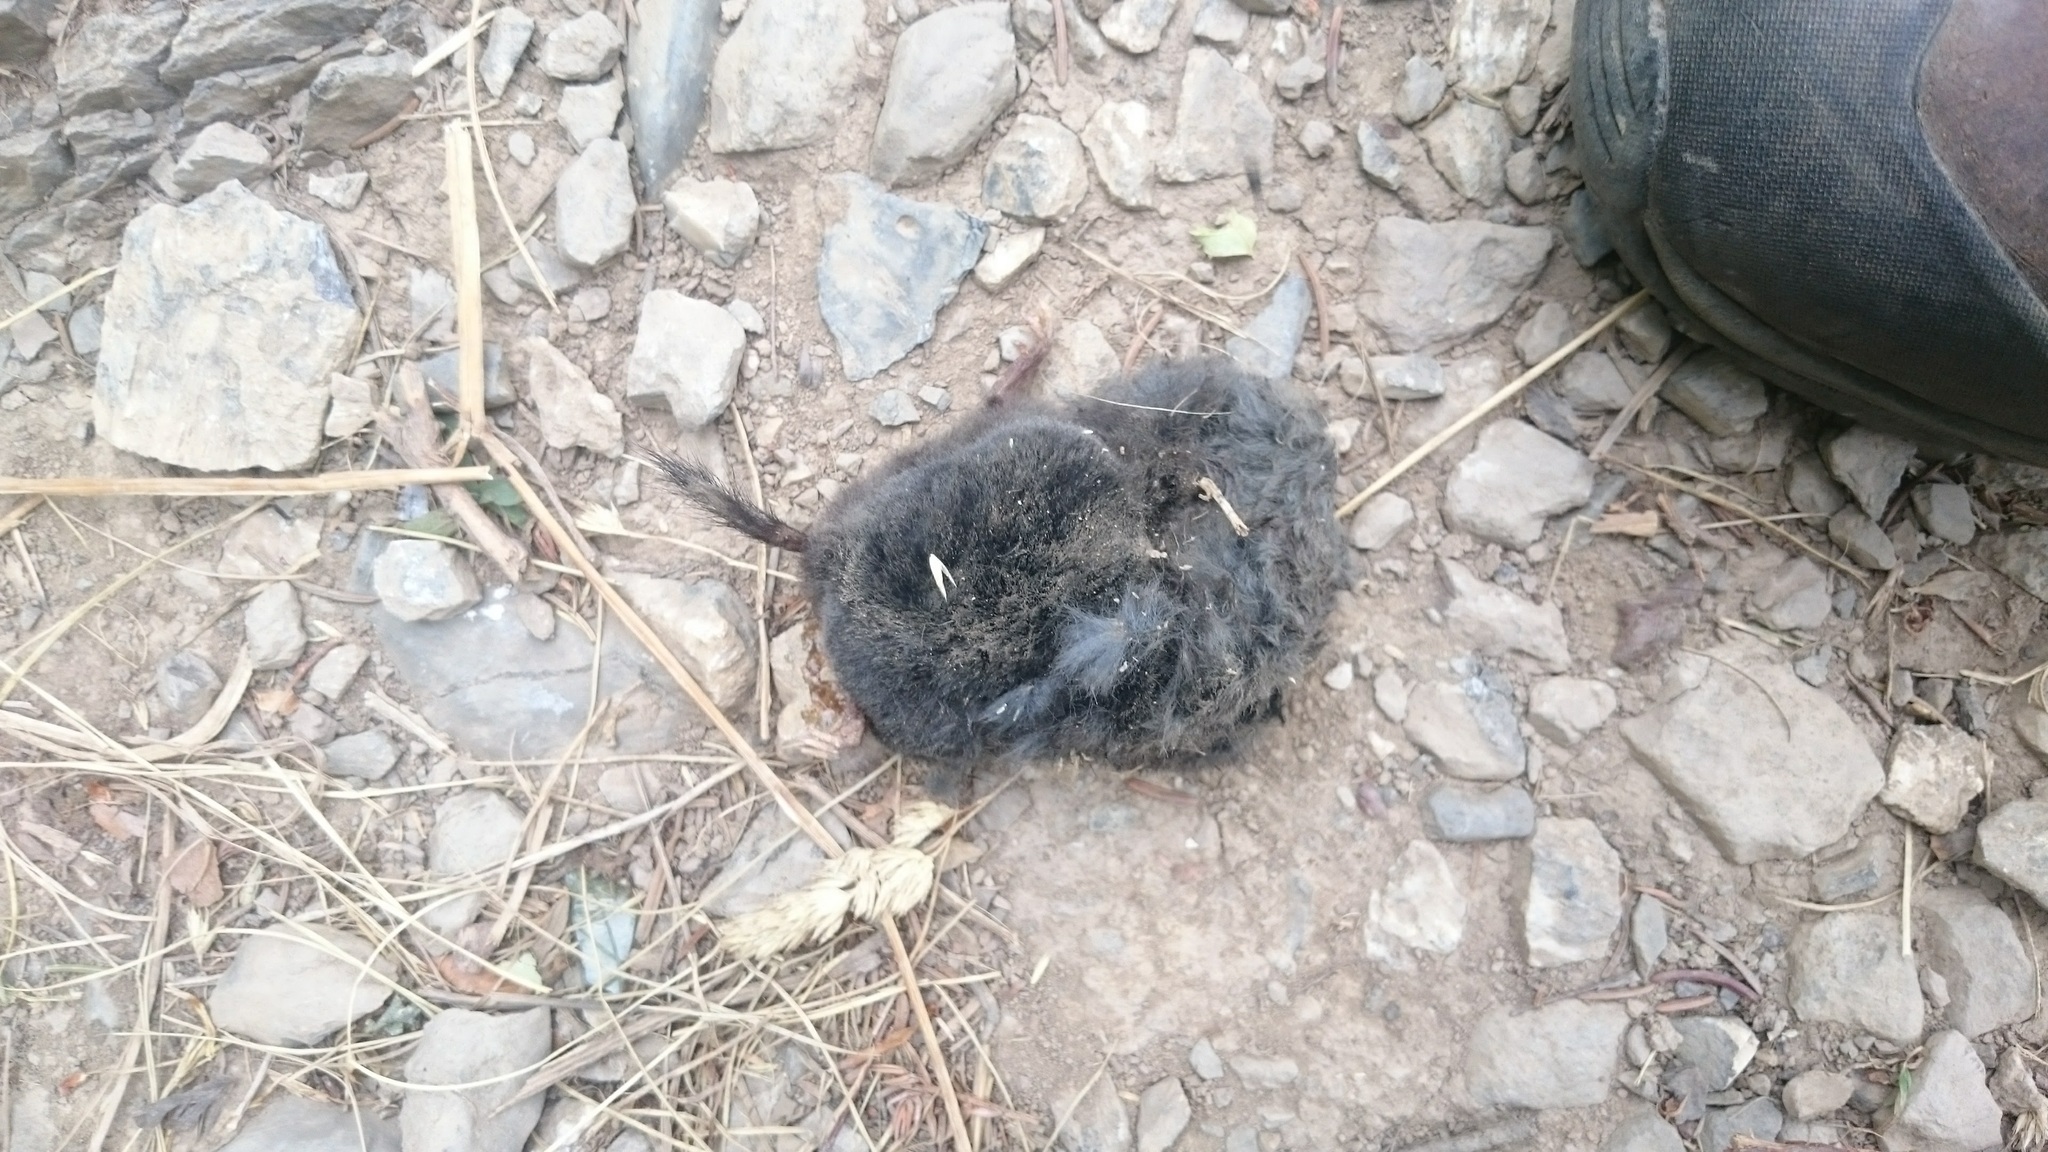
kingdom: Animalia
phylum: Chordata
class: Mammalia
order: Soricomorpha
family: Talpidae
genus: Talpa
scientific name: Talpa europaea
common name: European mole
